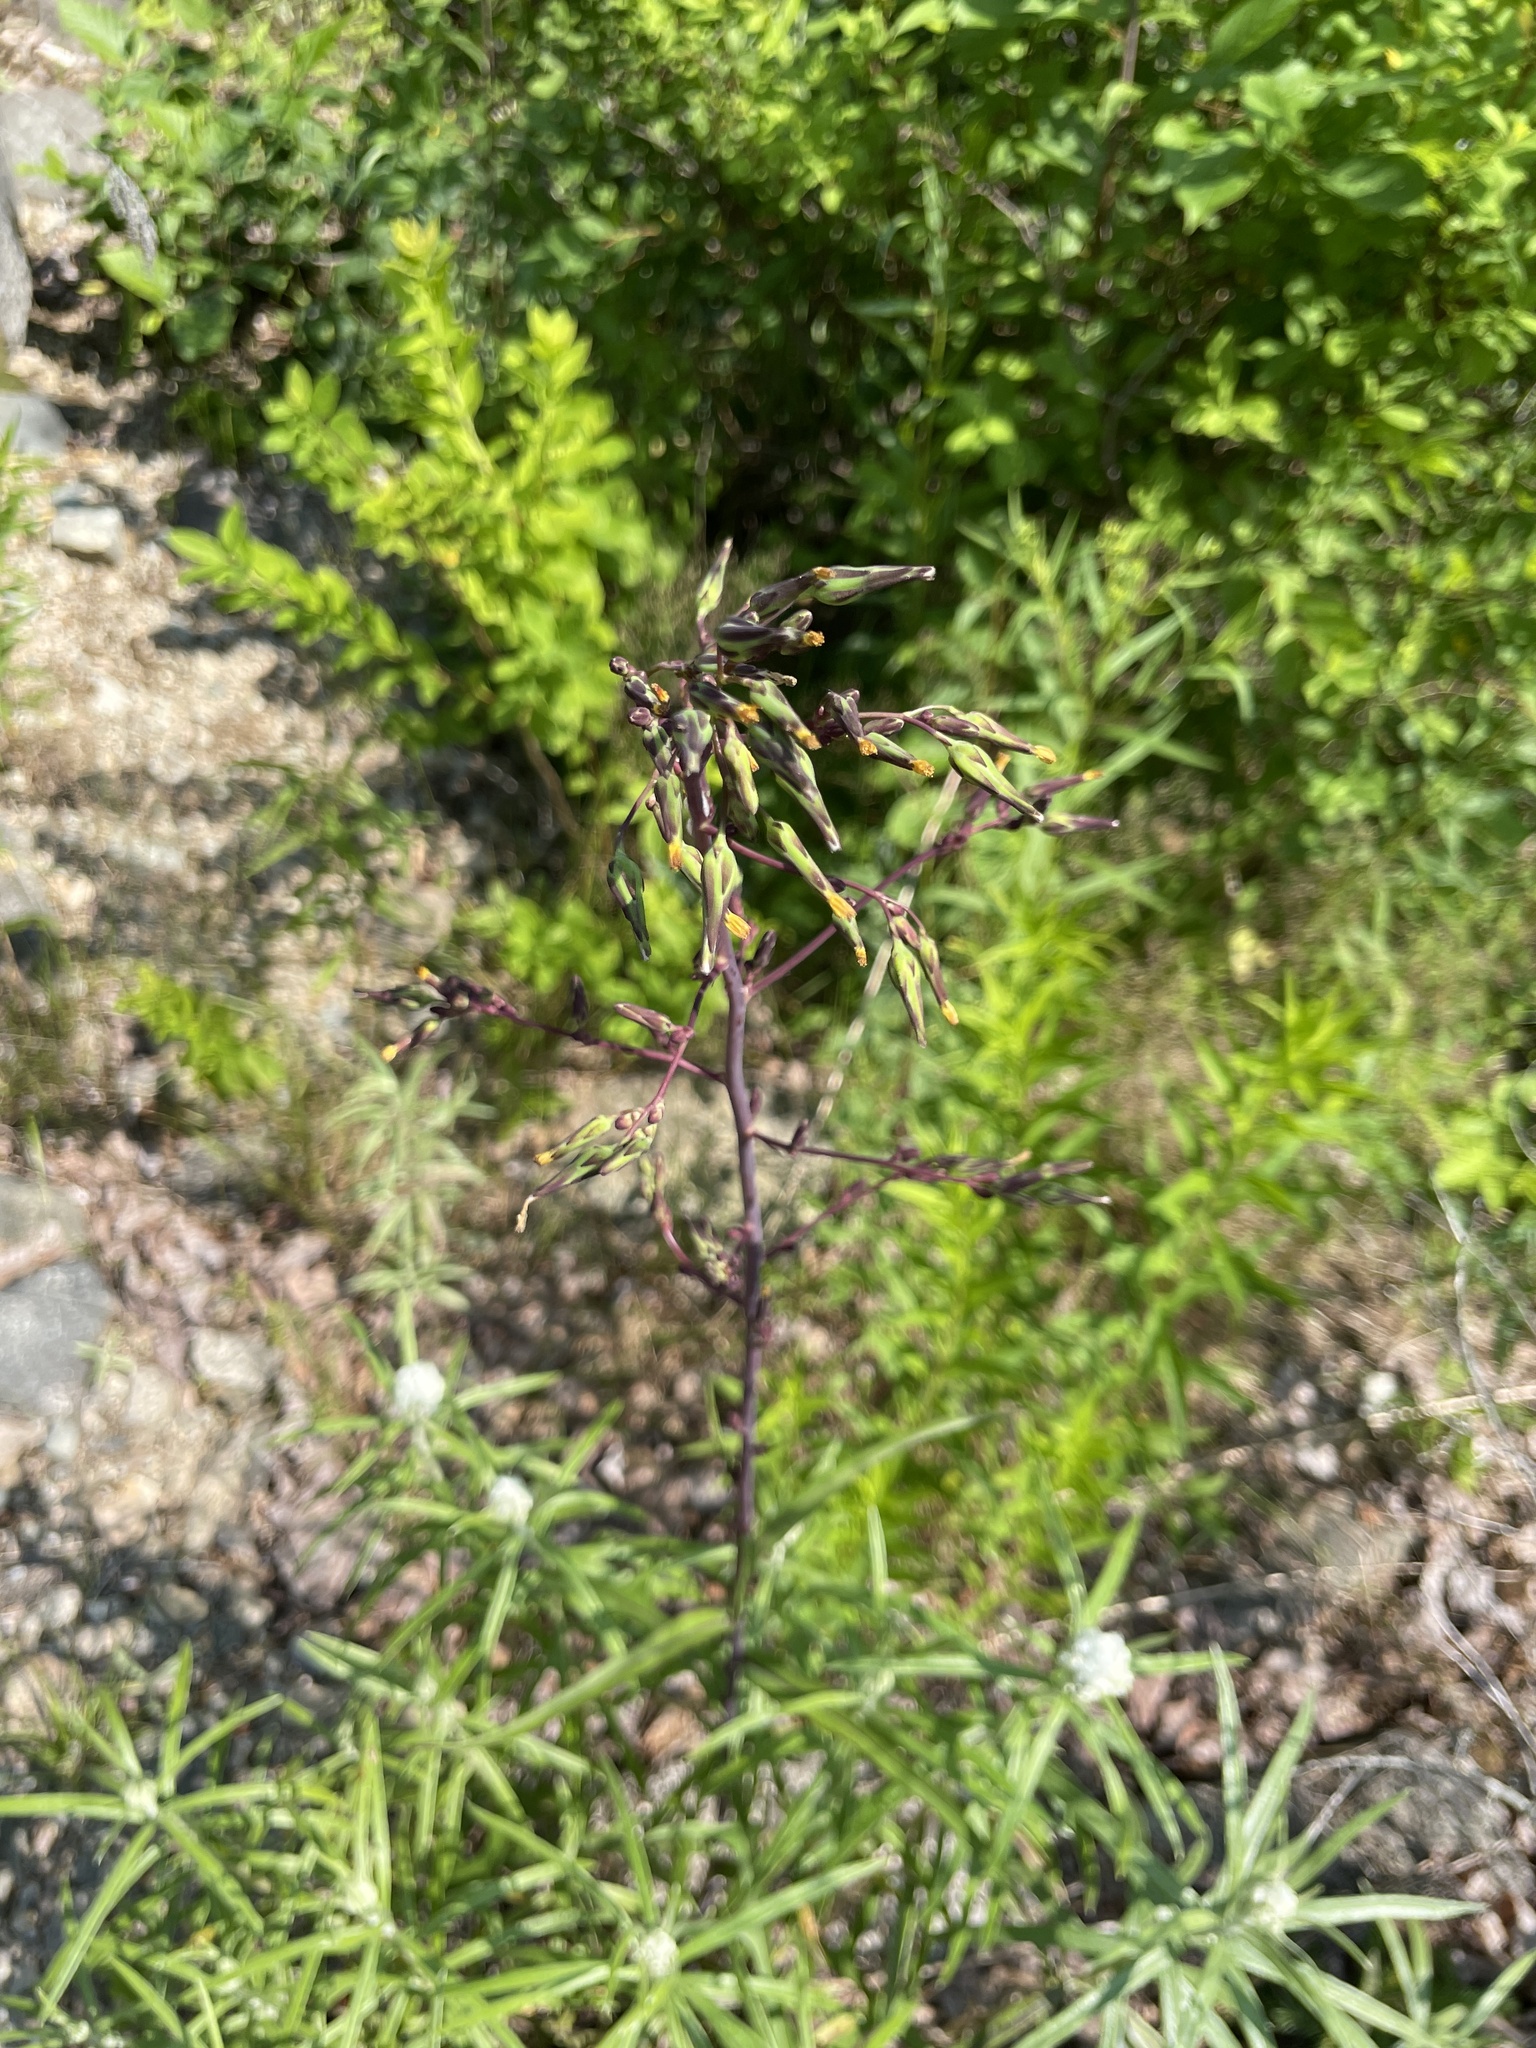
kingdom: Plantae
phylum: Tracheophyta
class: Magnoliopsida
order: Asterales
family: Asteraceae
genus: Lactuca
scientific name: Lactuca canadensis
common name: Canada lettuce
